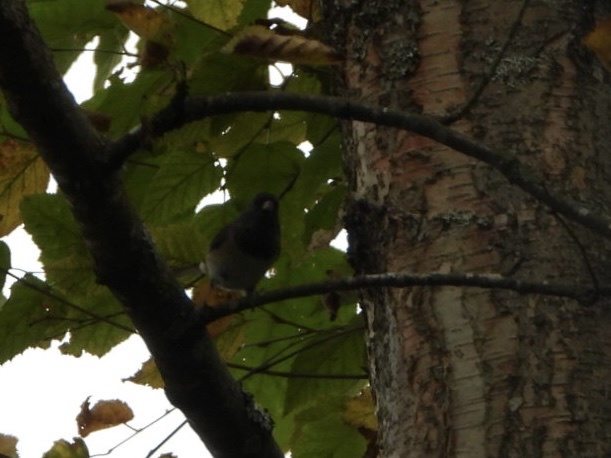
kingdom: Animalia
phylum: Chordata
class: Aves
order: Passeriformes
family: Passerellidae
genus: Junco
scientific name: Junco hyemalis
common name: Dark-eyed junco
